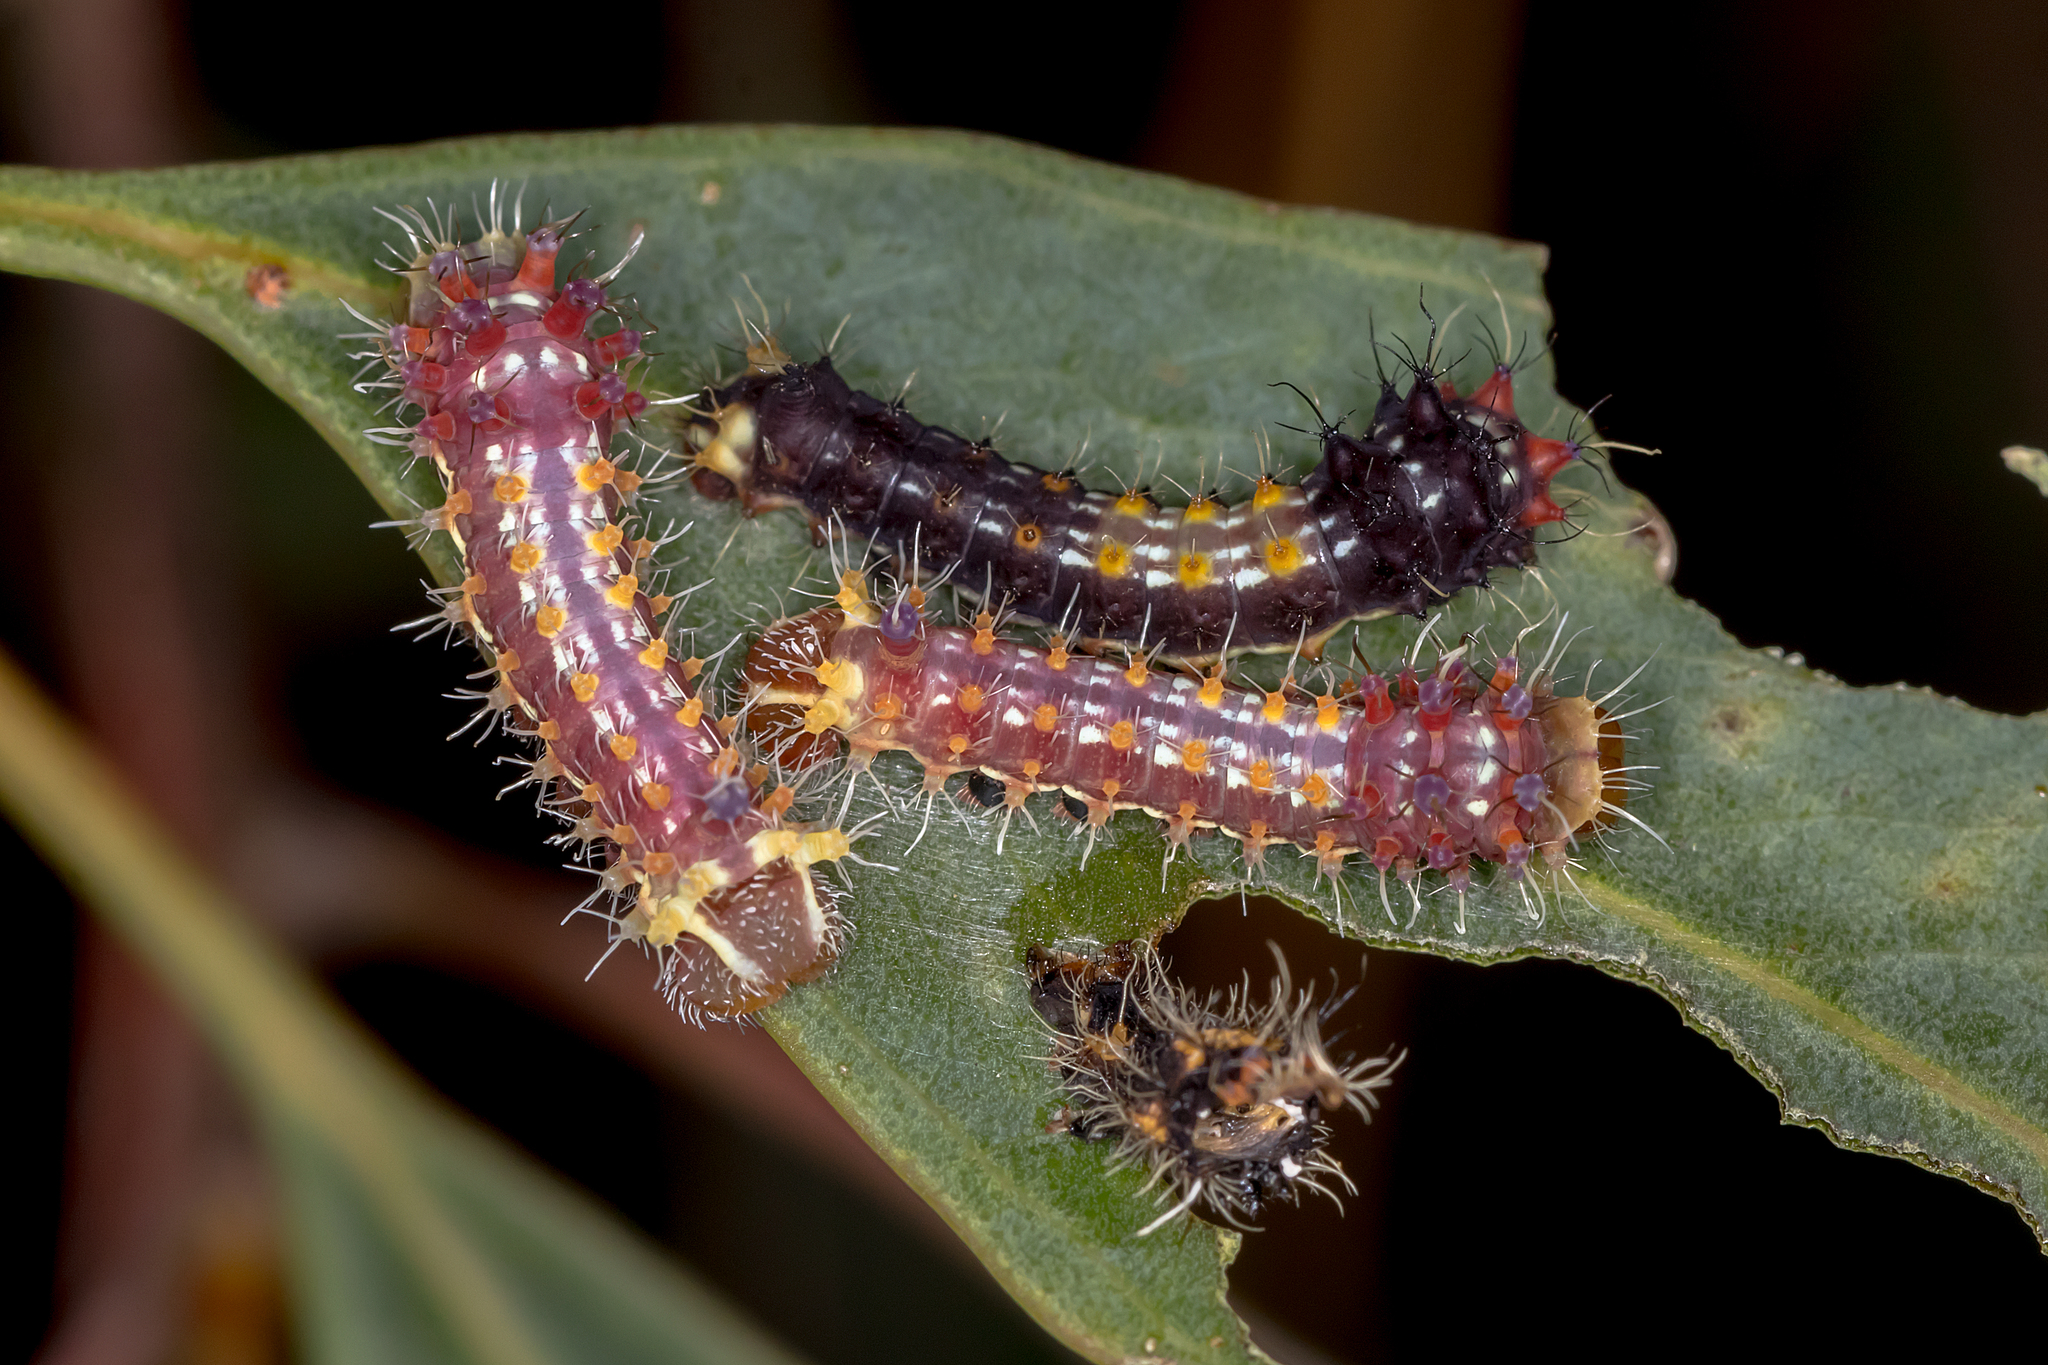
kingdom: Animalia
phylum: Arthropoda
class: Insecta
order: Lepidoptera
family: Saturniidae
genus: Opodiphthera
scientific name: Opodiphthera
